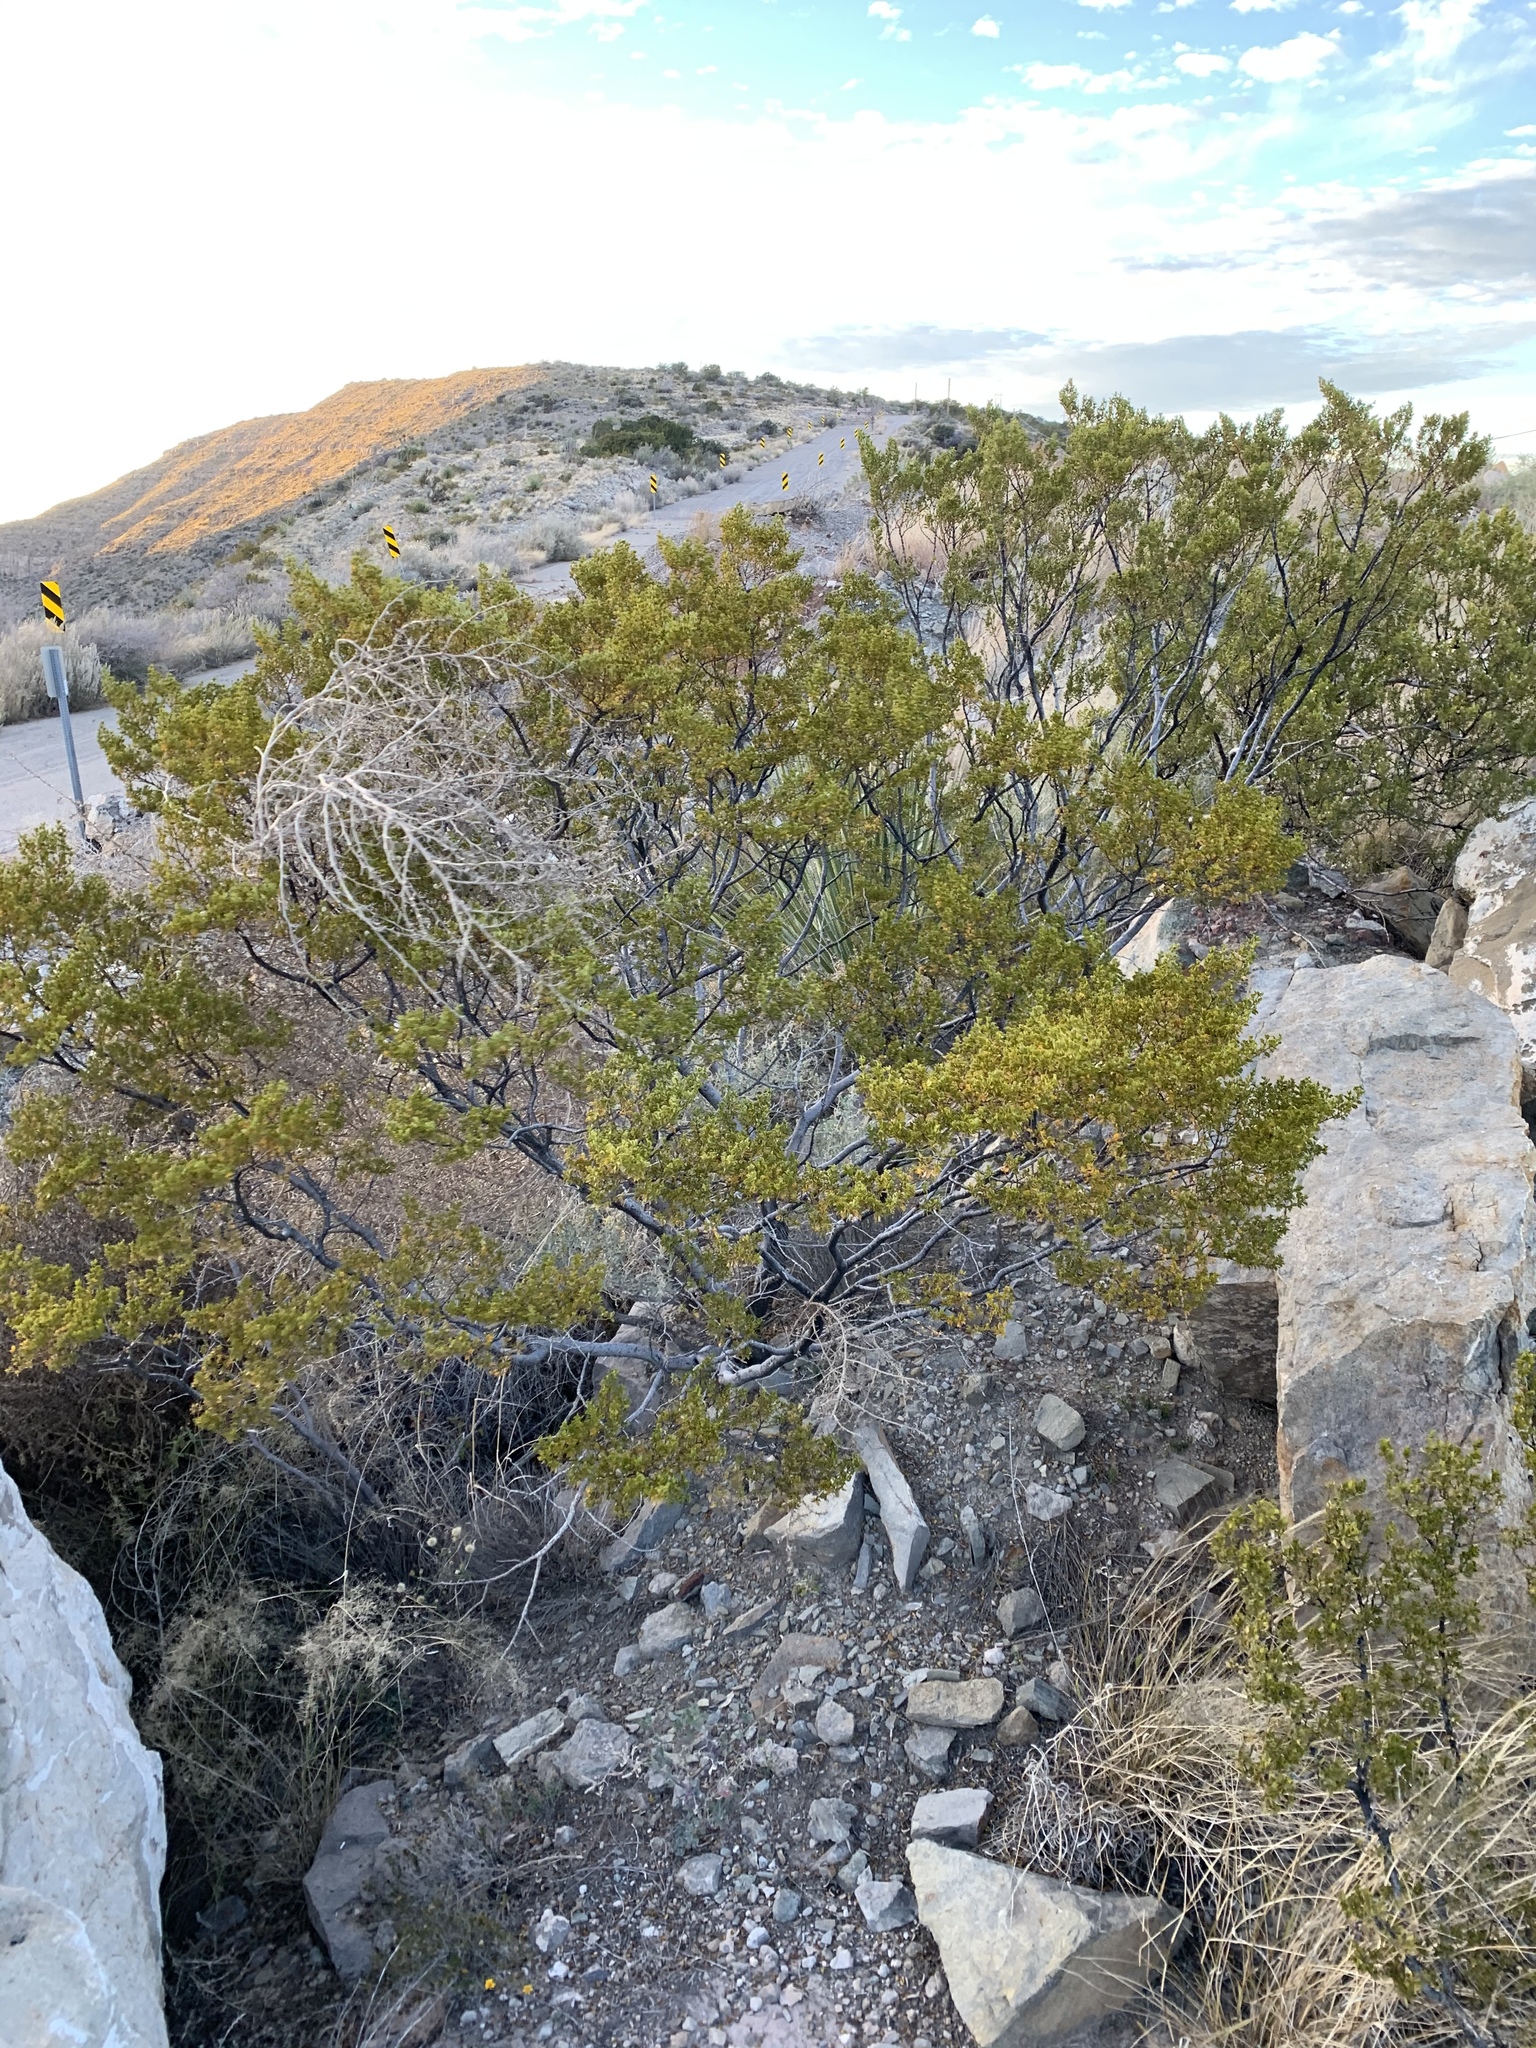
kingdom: Plantae
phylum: Tracheophyta
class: Magnoliopsida
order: Zygophyllales
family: Zygophyllaceae
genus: Larrea
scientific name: Larrea tridentata
